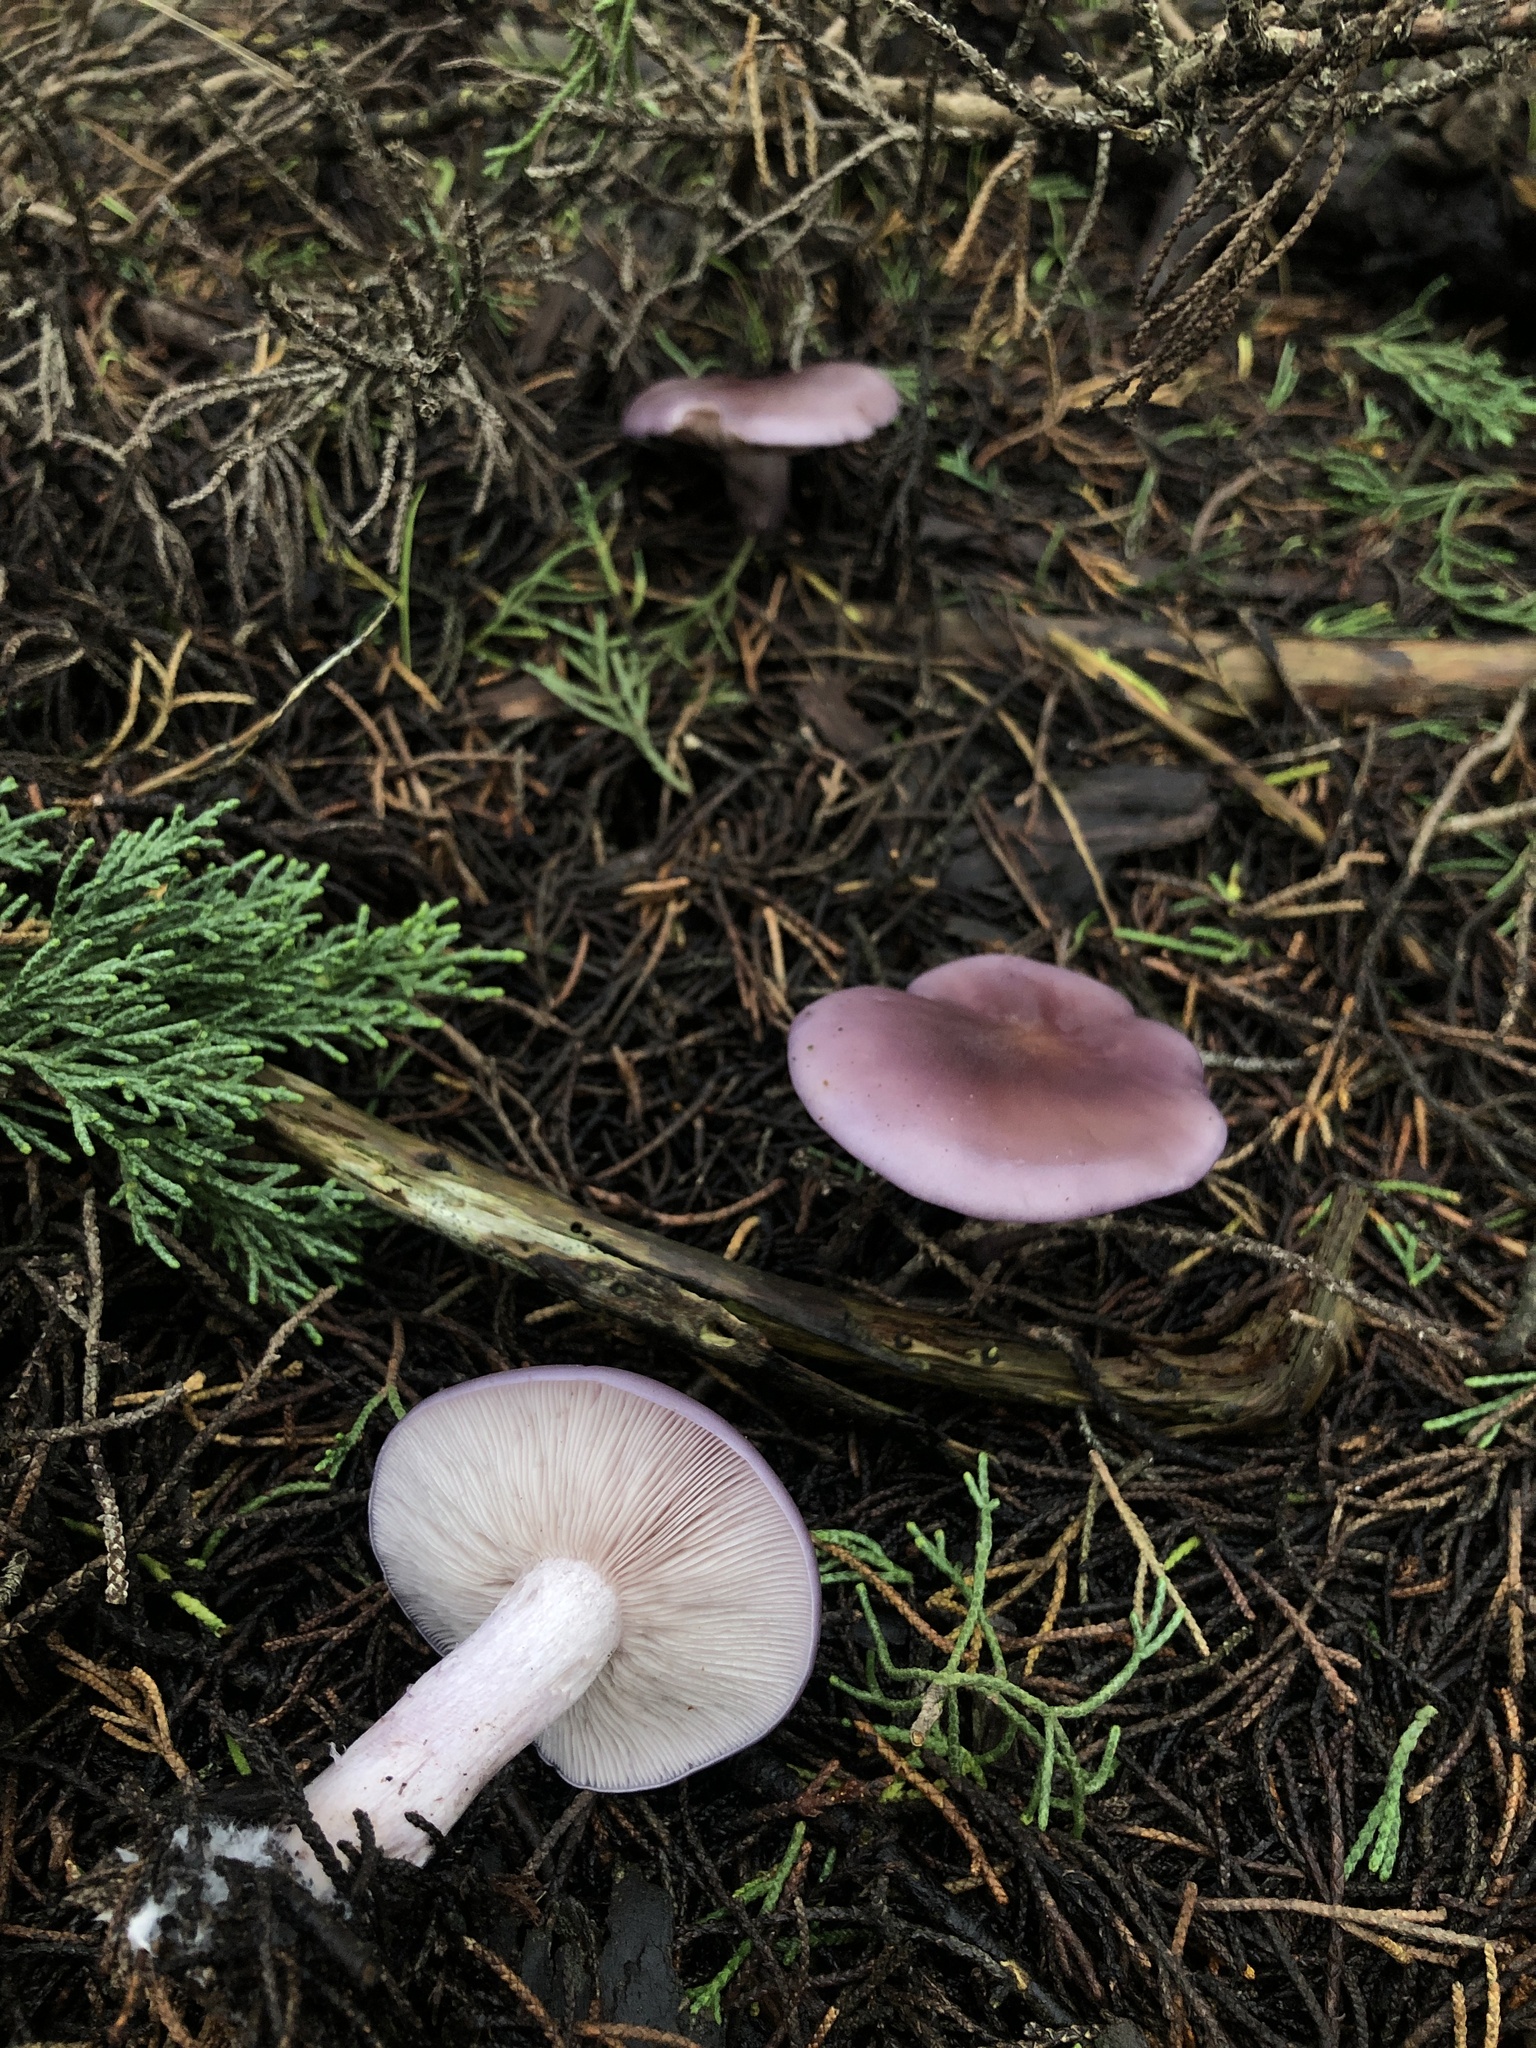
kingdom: Fungi
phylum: Basidiomycota
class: Agaricomycetes
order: Agaricales
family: Tricholomataceae
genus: Clitocybe
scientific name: Clitocybe violaceifolia
